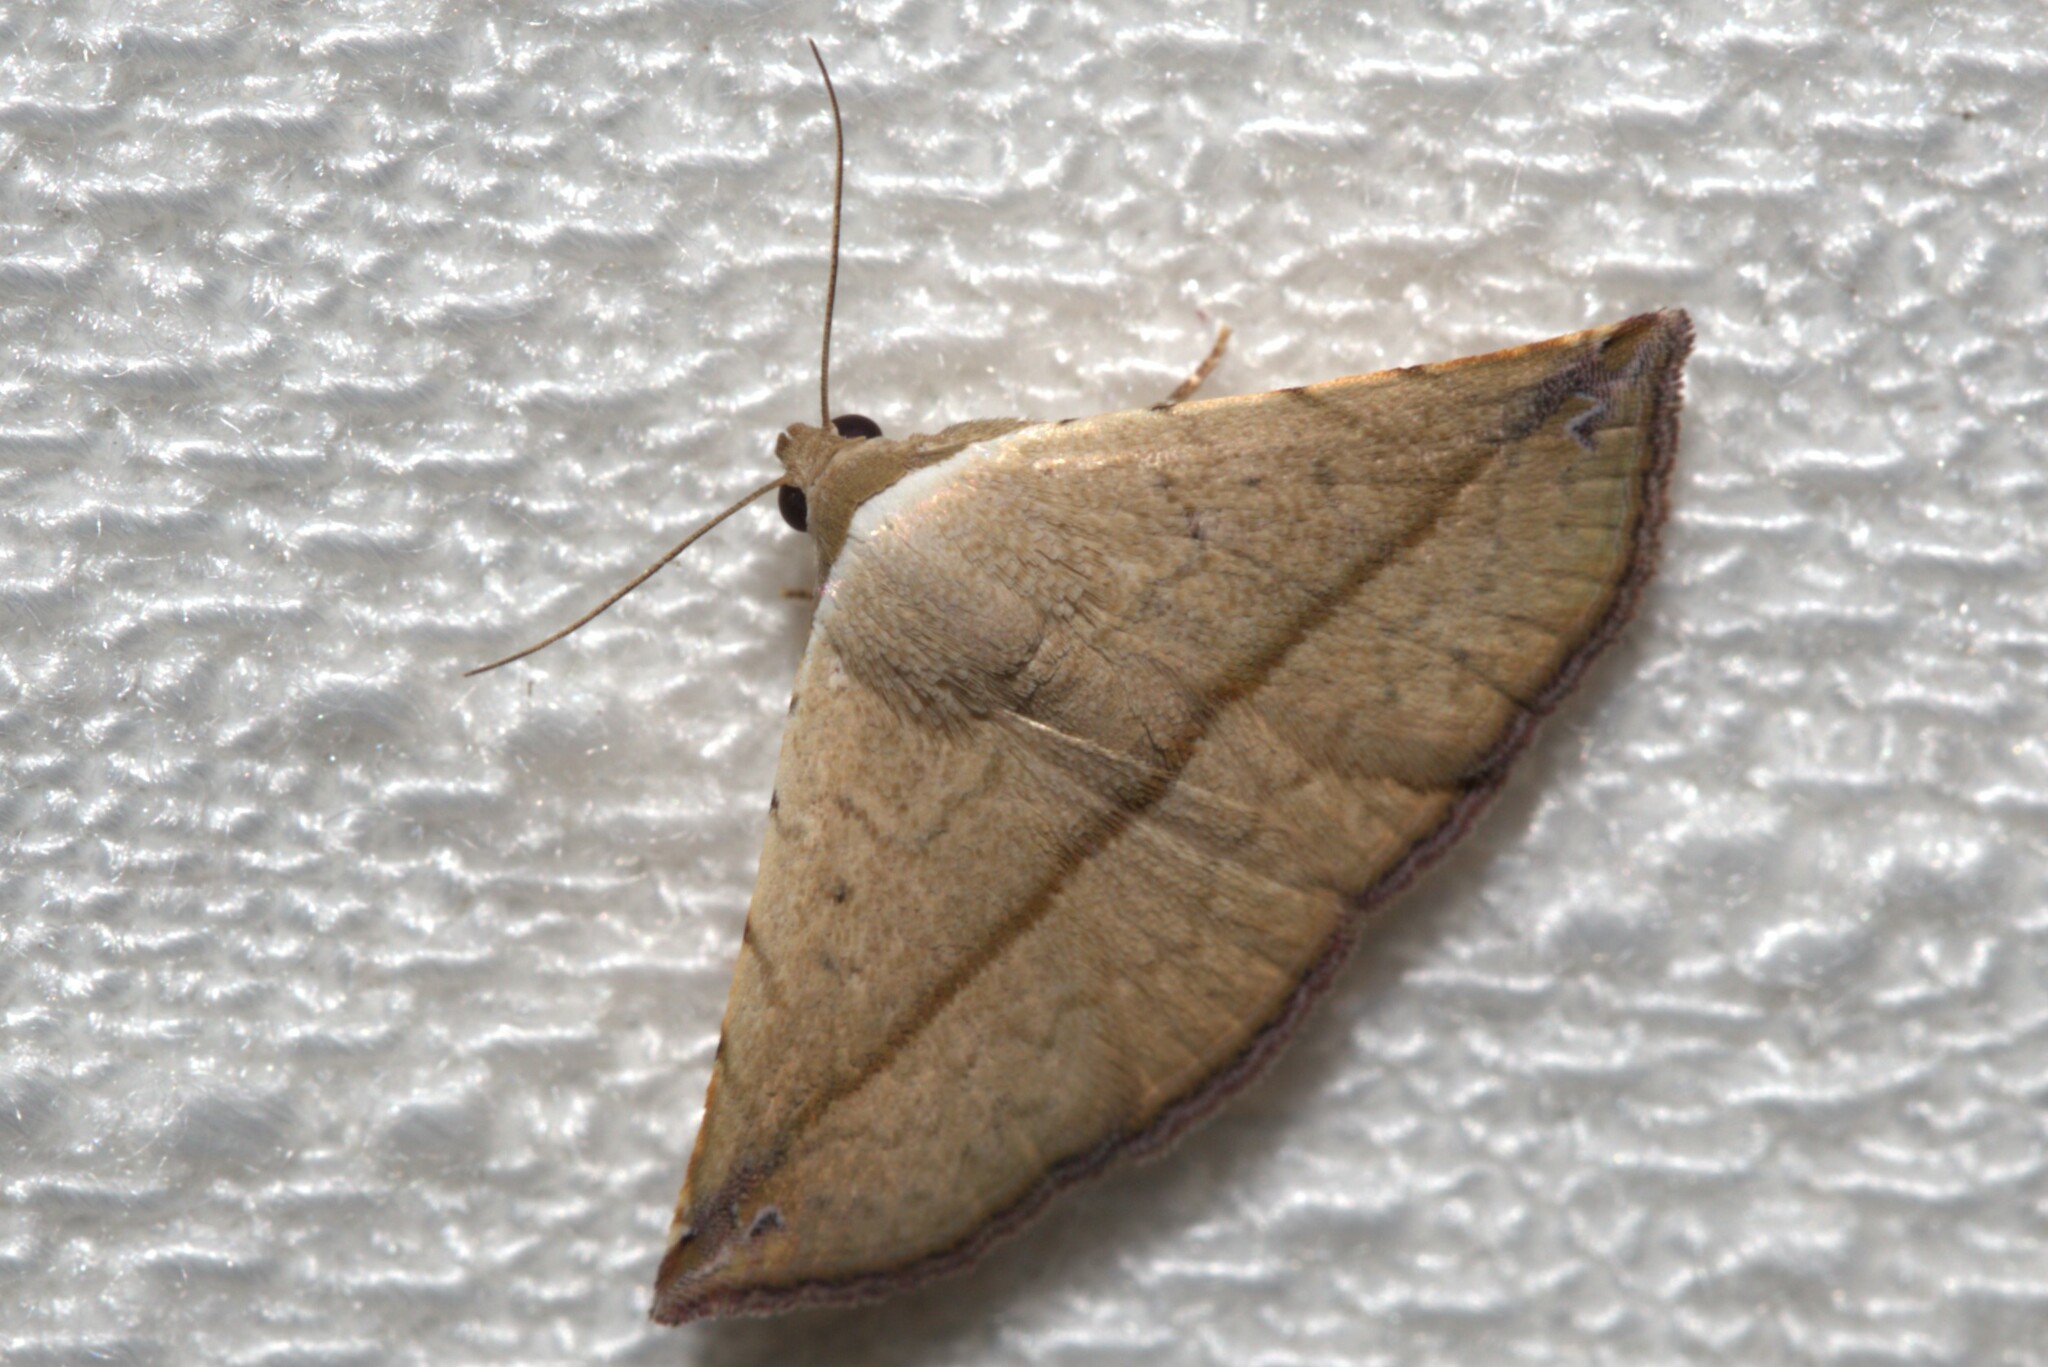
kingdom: Animalia
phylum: Arthropoda
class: Insecta
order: Lepidoptera
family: Noctuidae
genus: Eublemma
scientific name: Eublemma perversicolor
